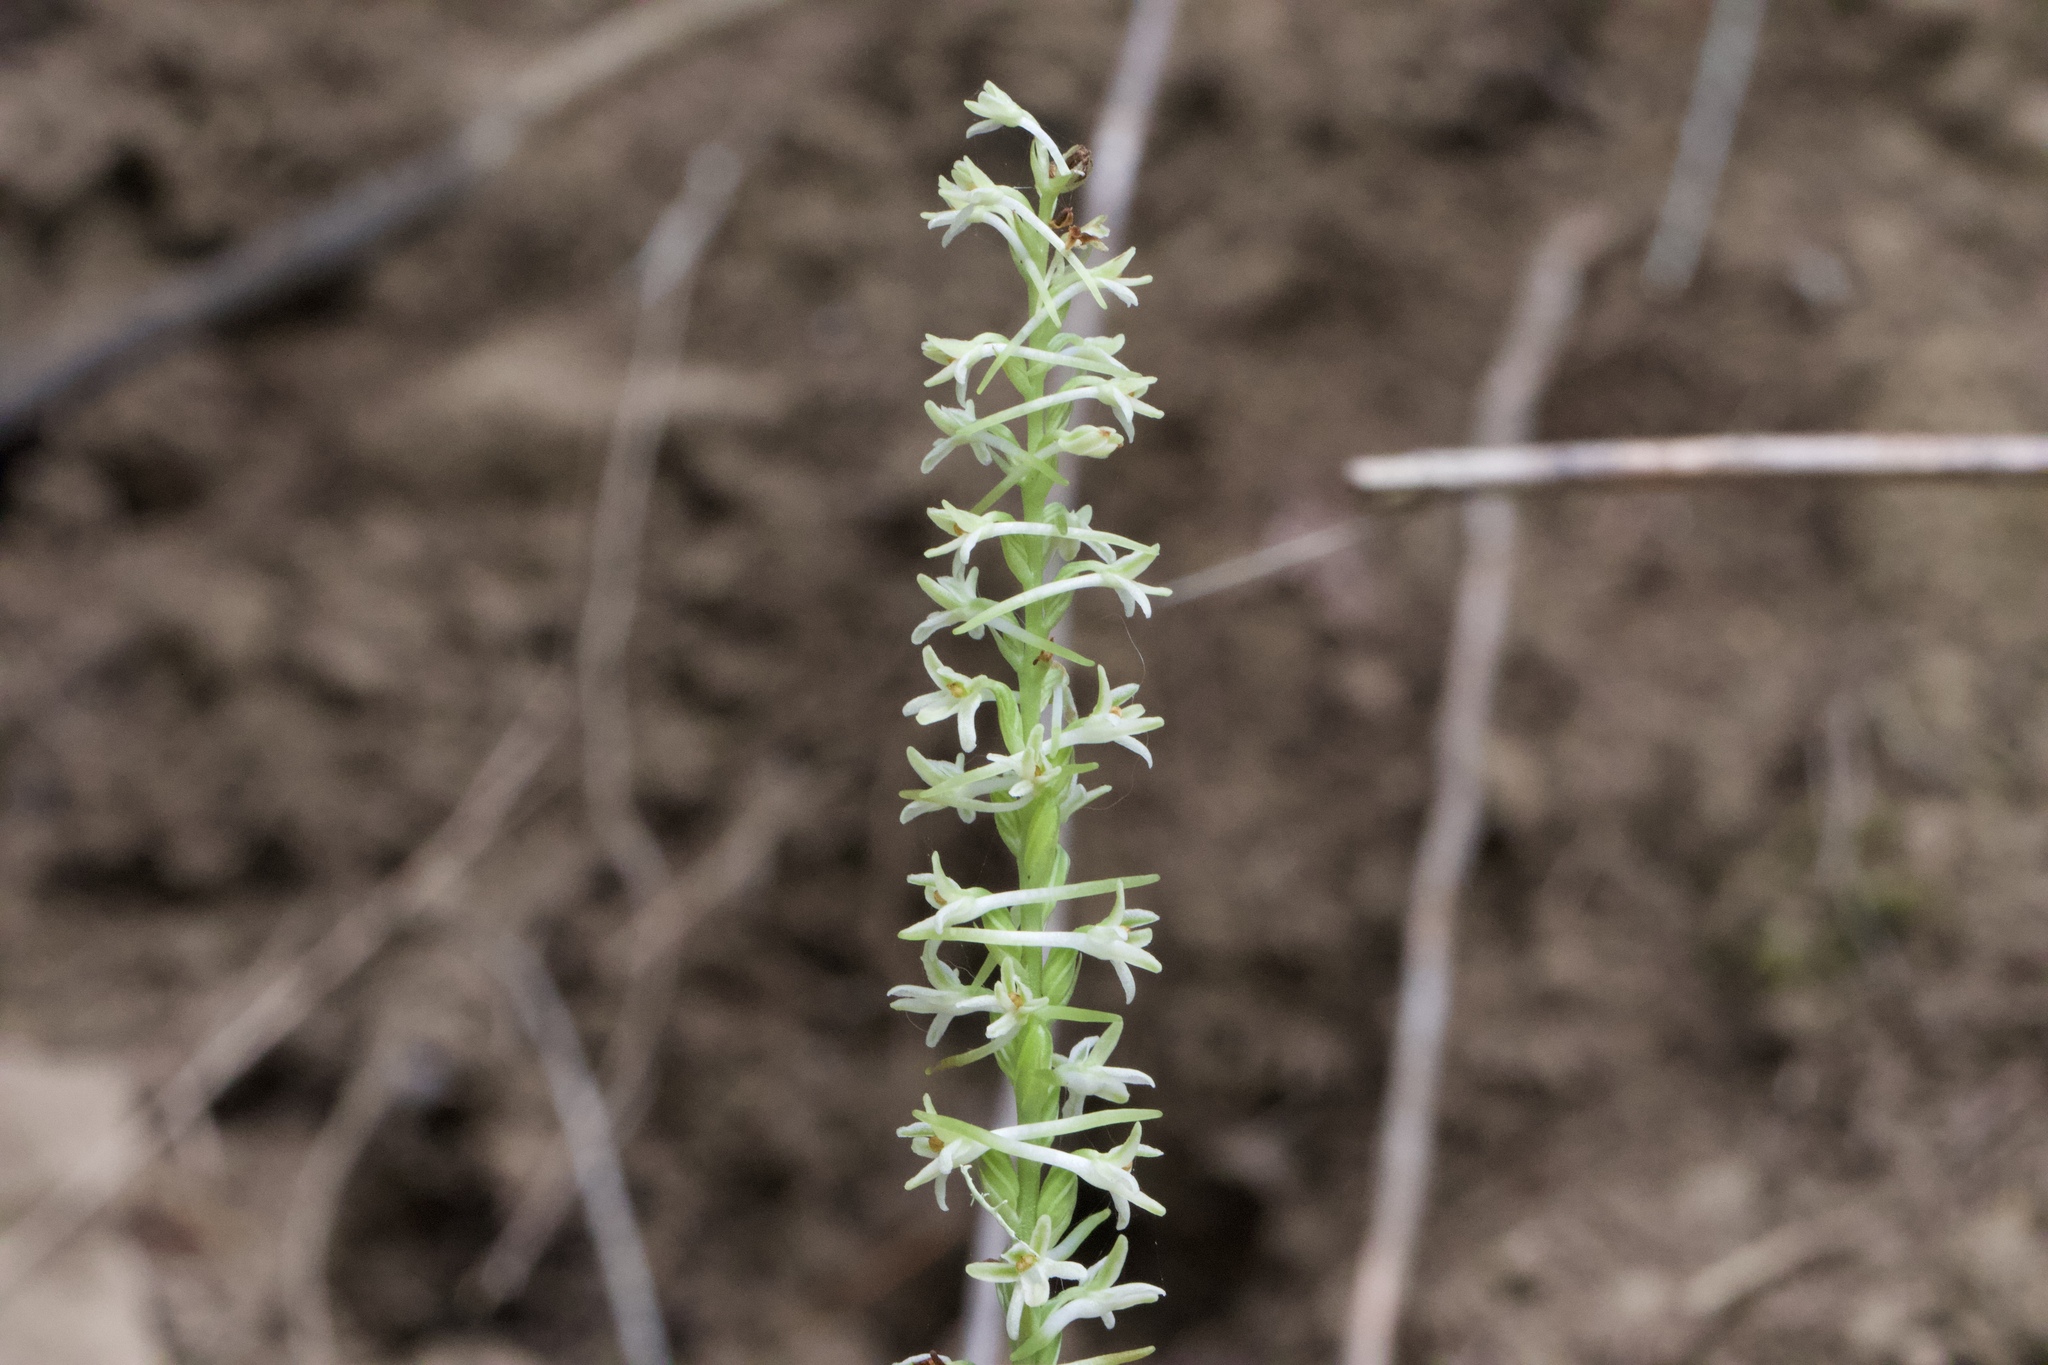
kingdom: Plantae
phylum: Tracheophyta
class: Liliopsida
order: Asparagales
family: Orchidaceae
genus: Platanthera
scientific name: Platanthera transversa
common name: Royal rein orchid
